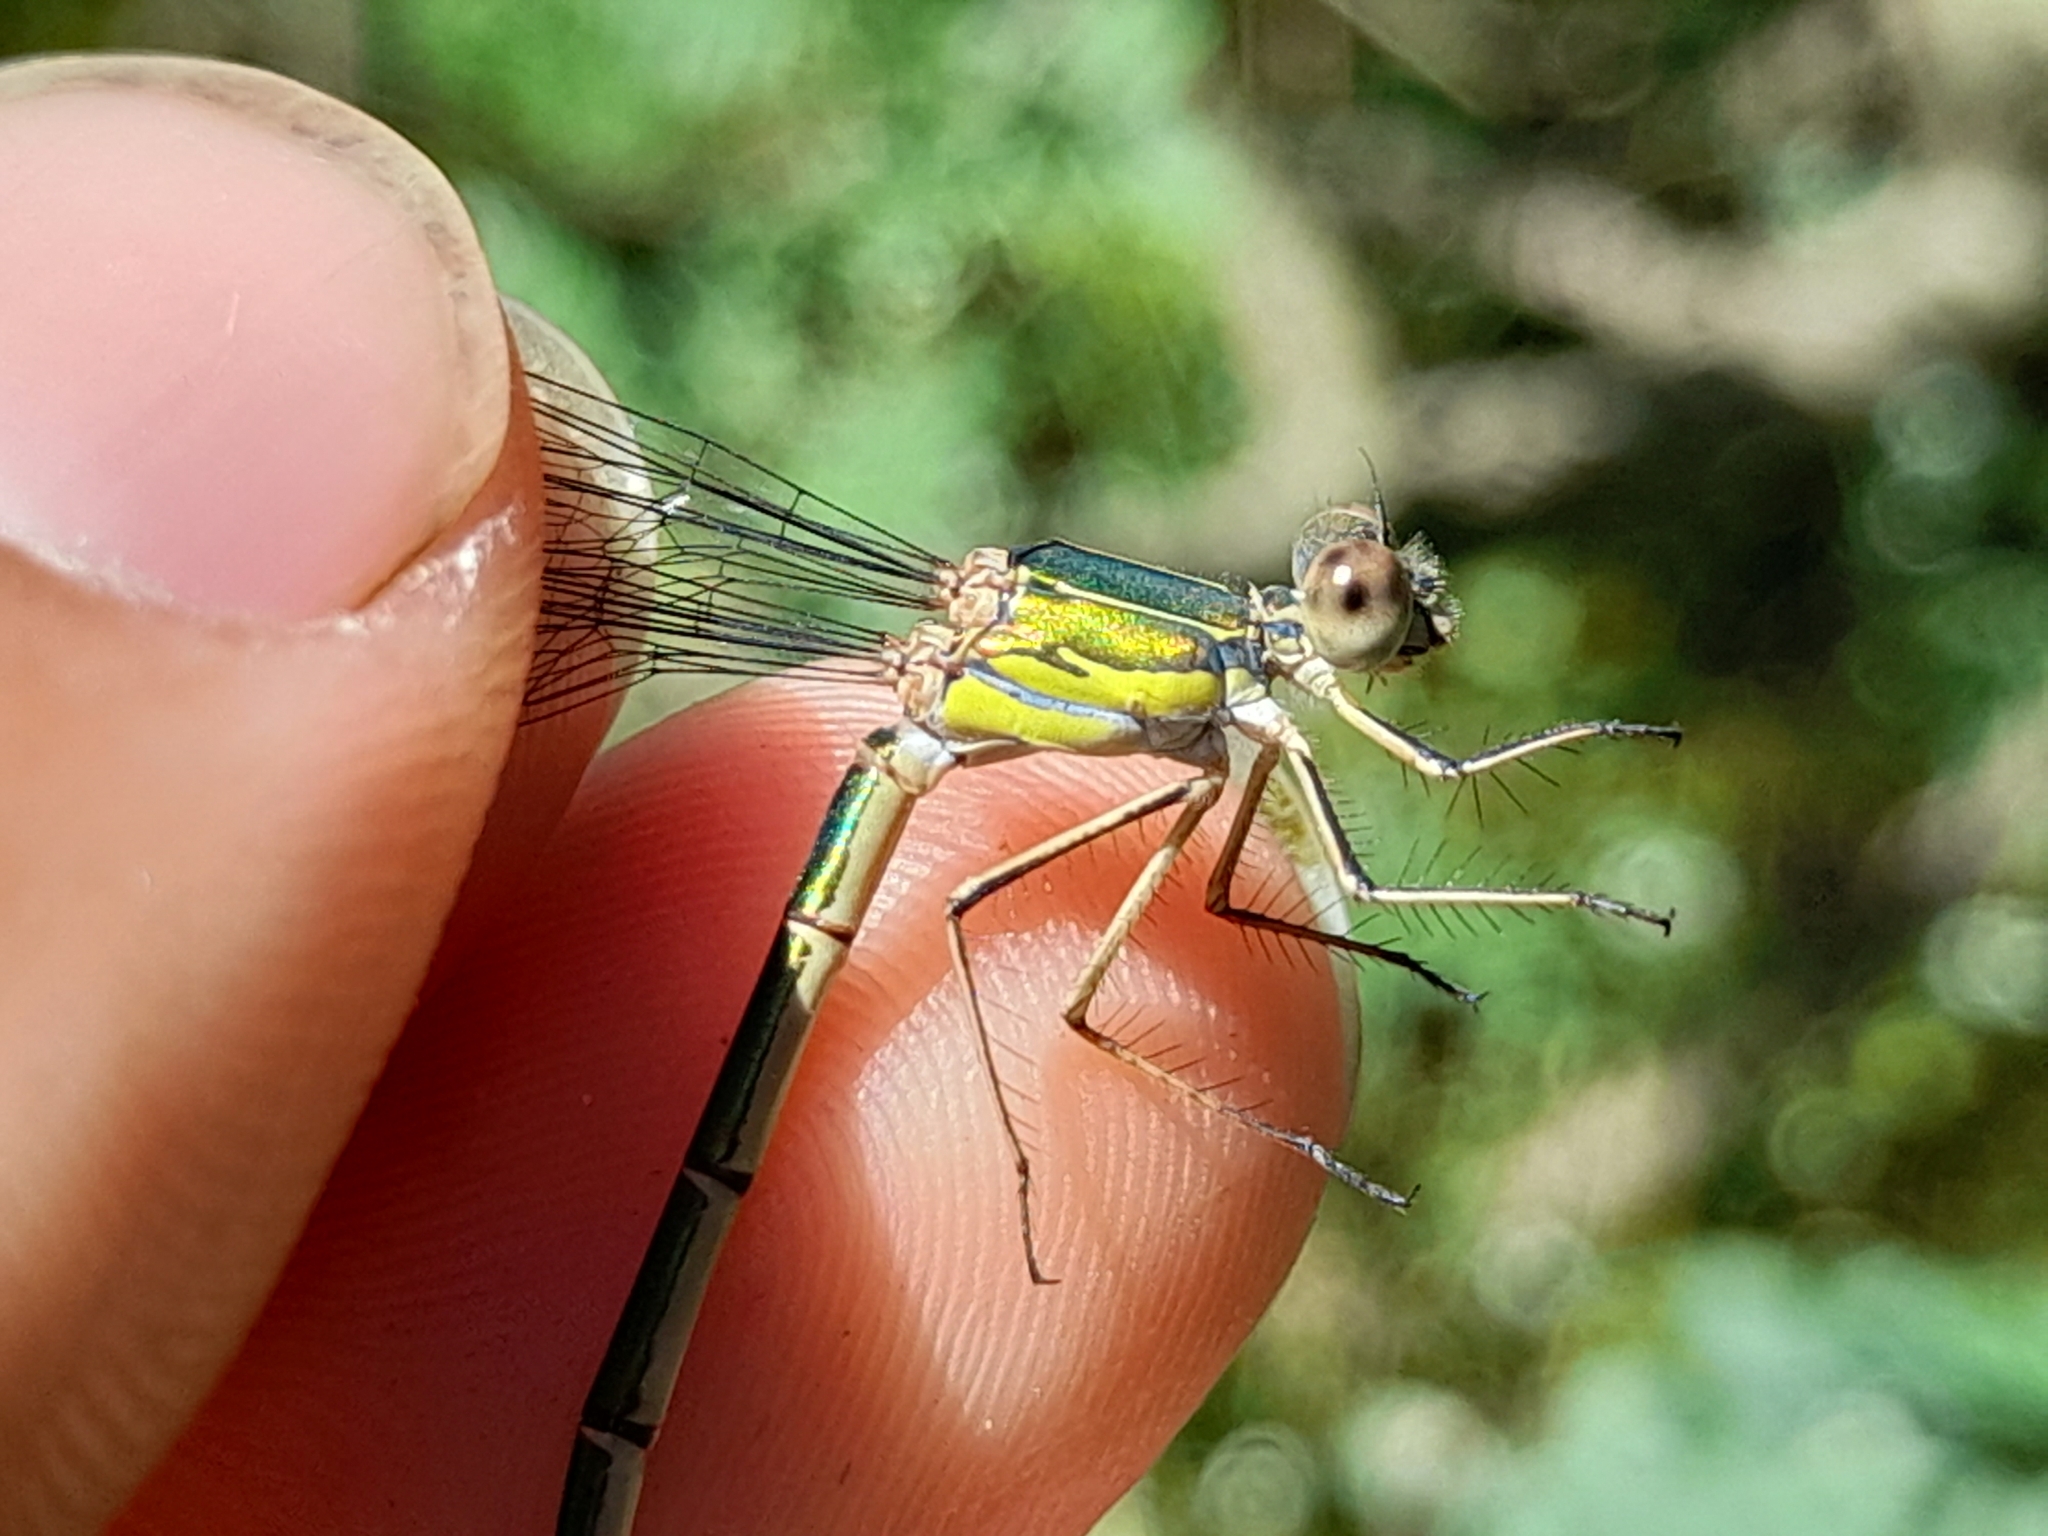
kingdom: Animalia
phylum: Arthropoda
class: Insecta
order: Odonata
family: Lestidae
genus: Chalcolestes
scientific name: Chalcolestes viridis
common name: Green emerald damselfly
